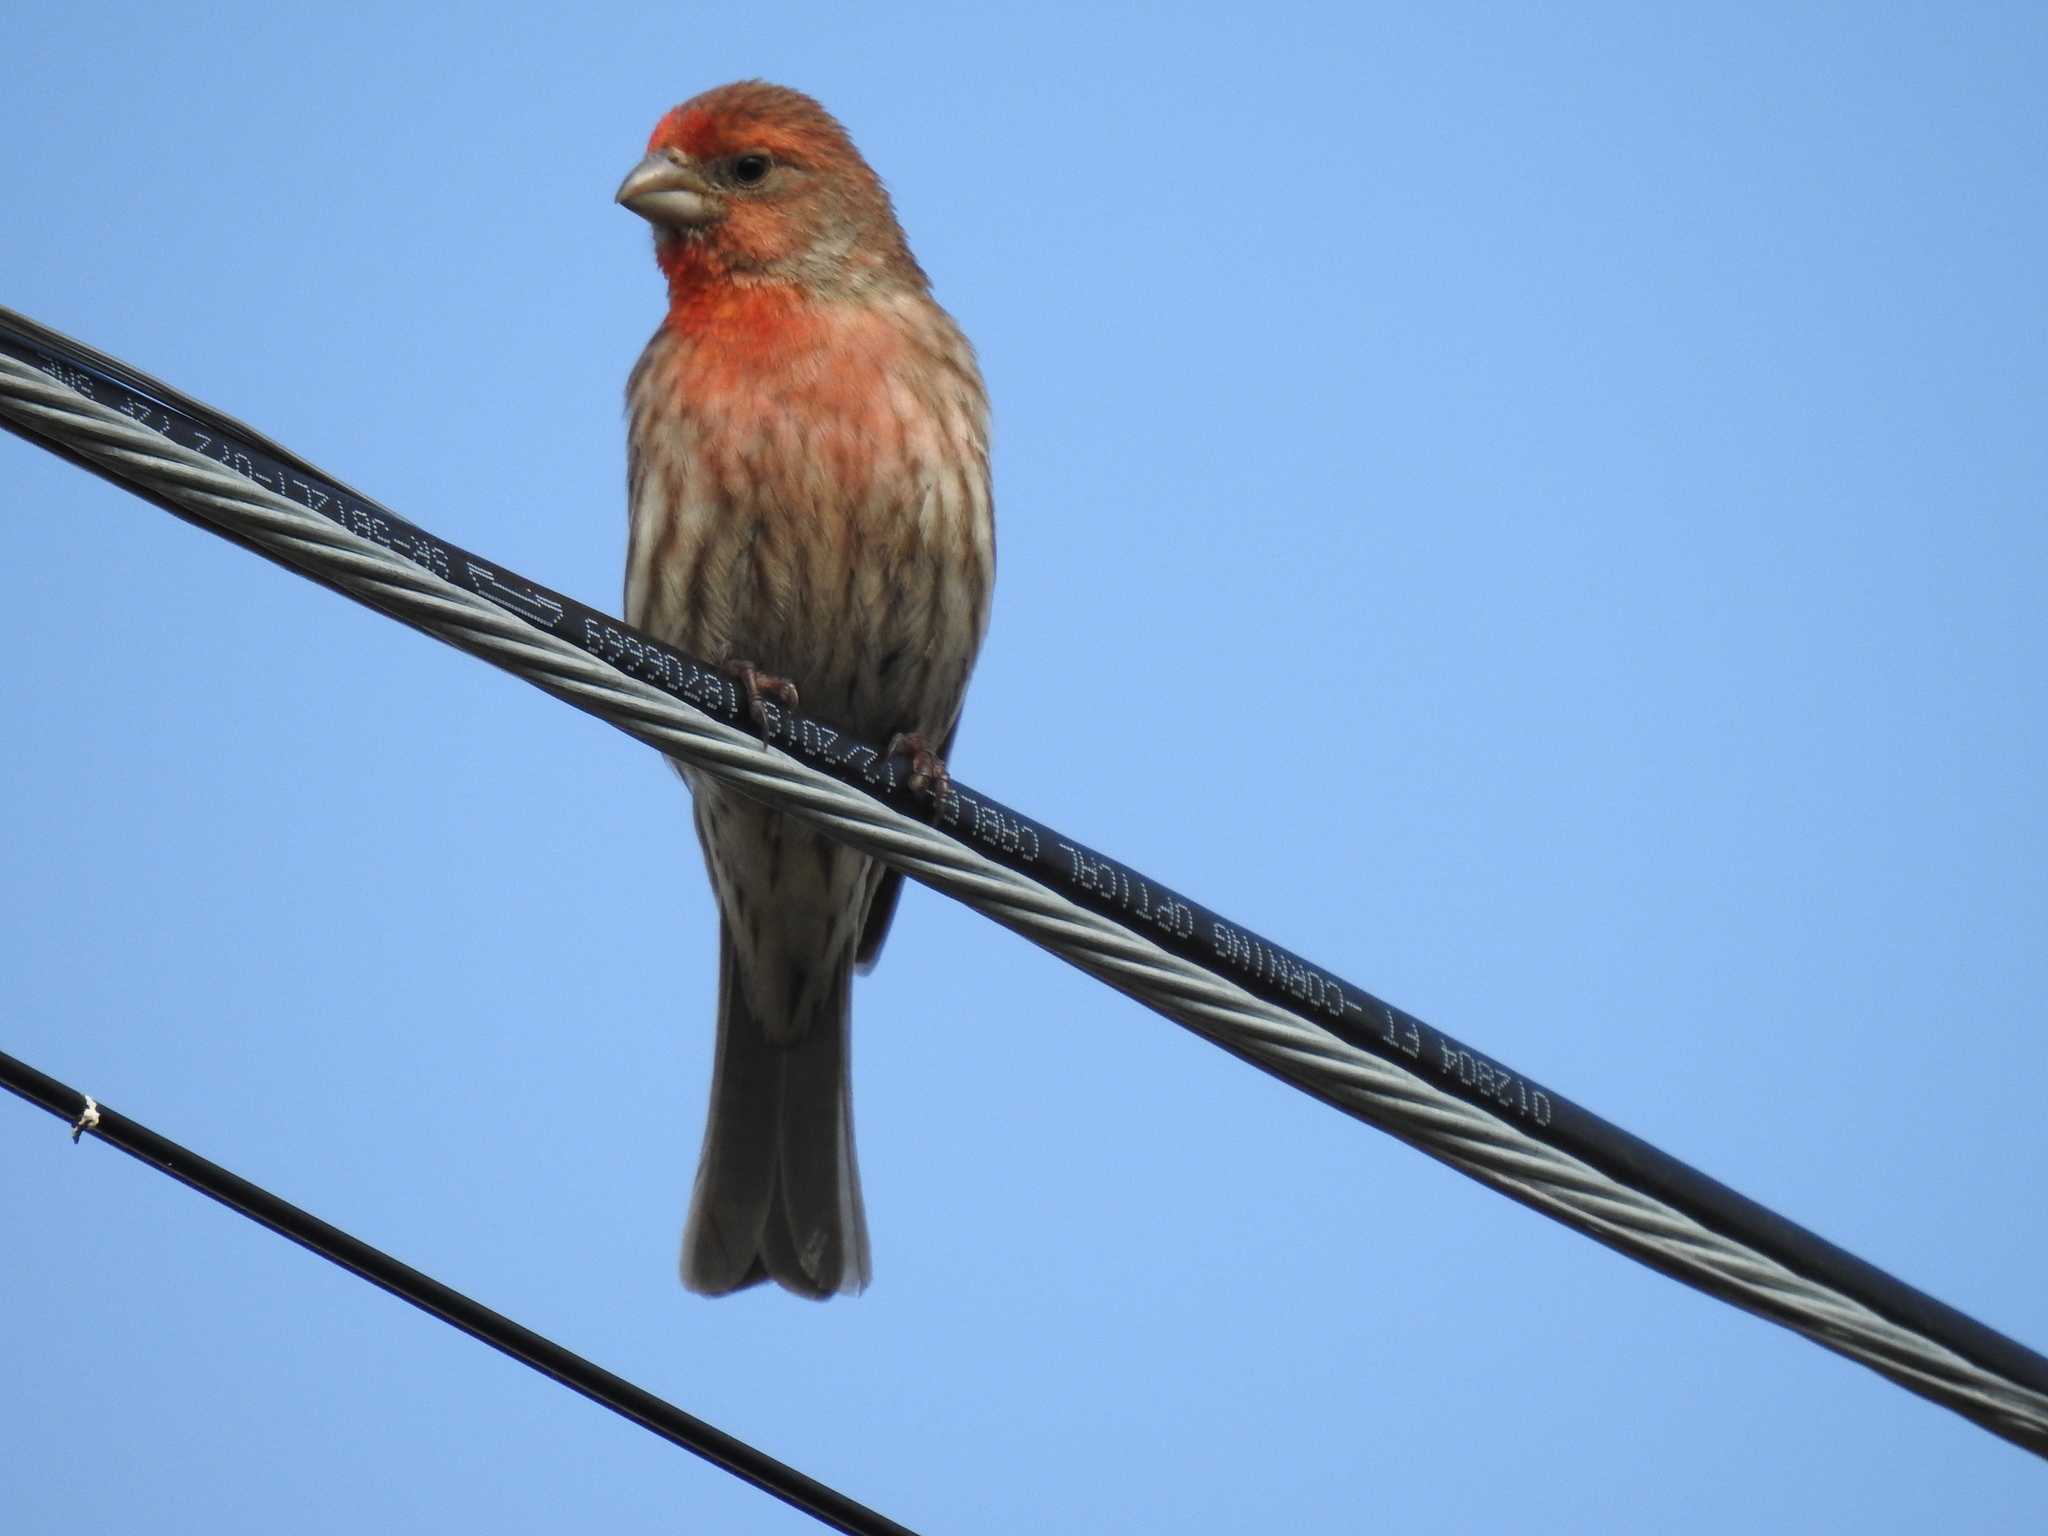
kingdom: Animalia
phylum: Chordata
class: Aves
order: Passeriformes
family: Fringillidae
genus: Haemorhous
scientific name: Haemorhous mexicanus
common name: House finch
